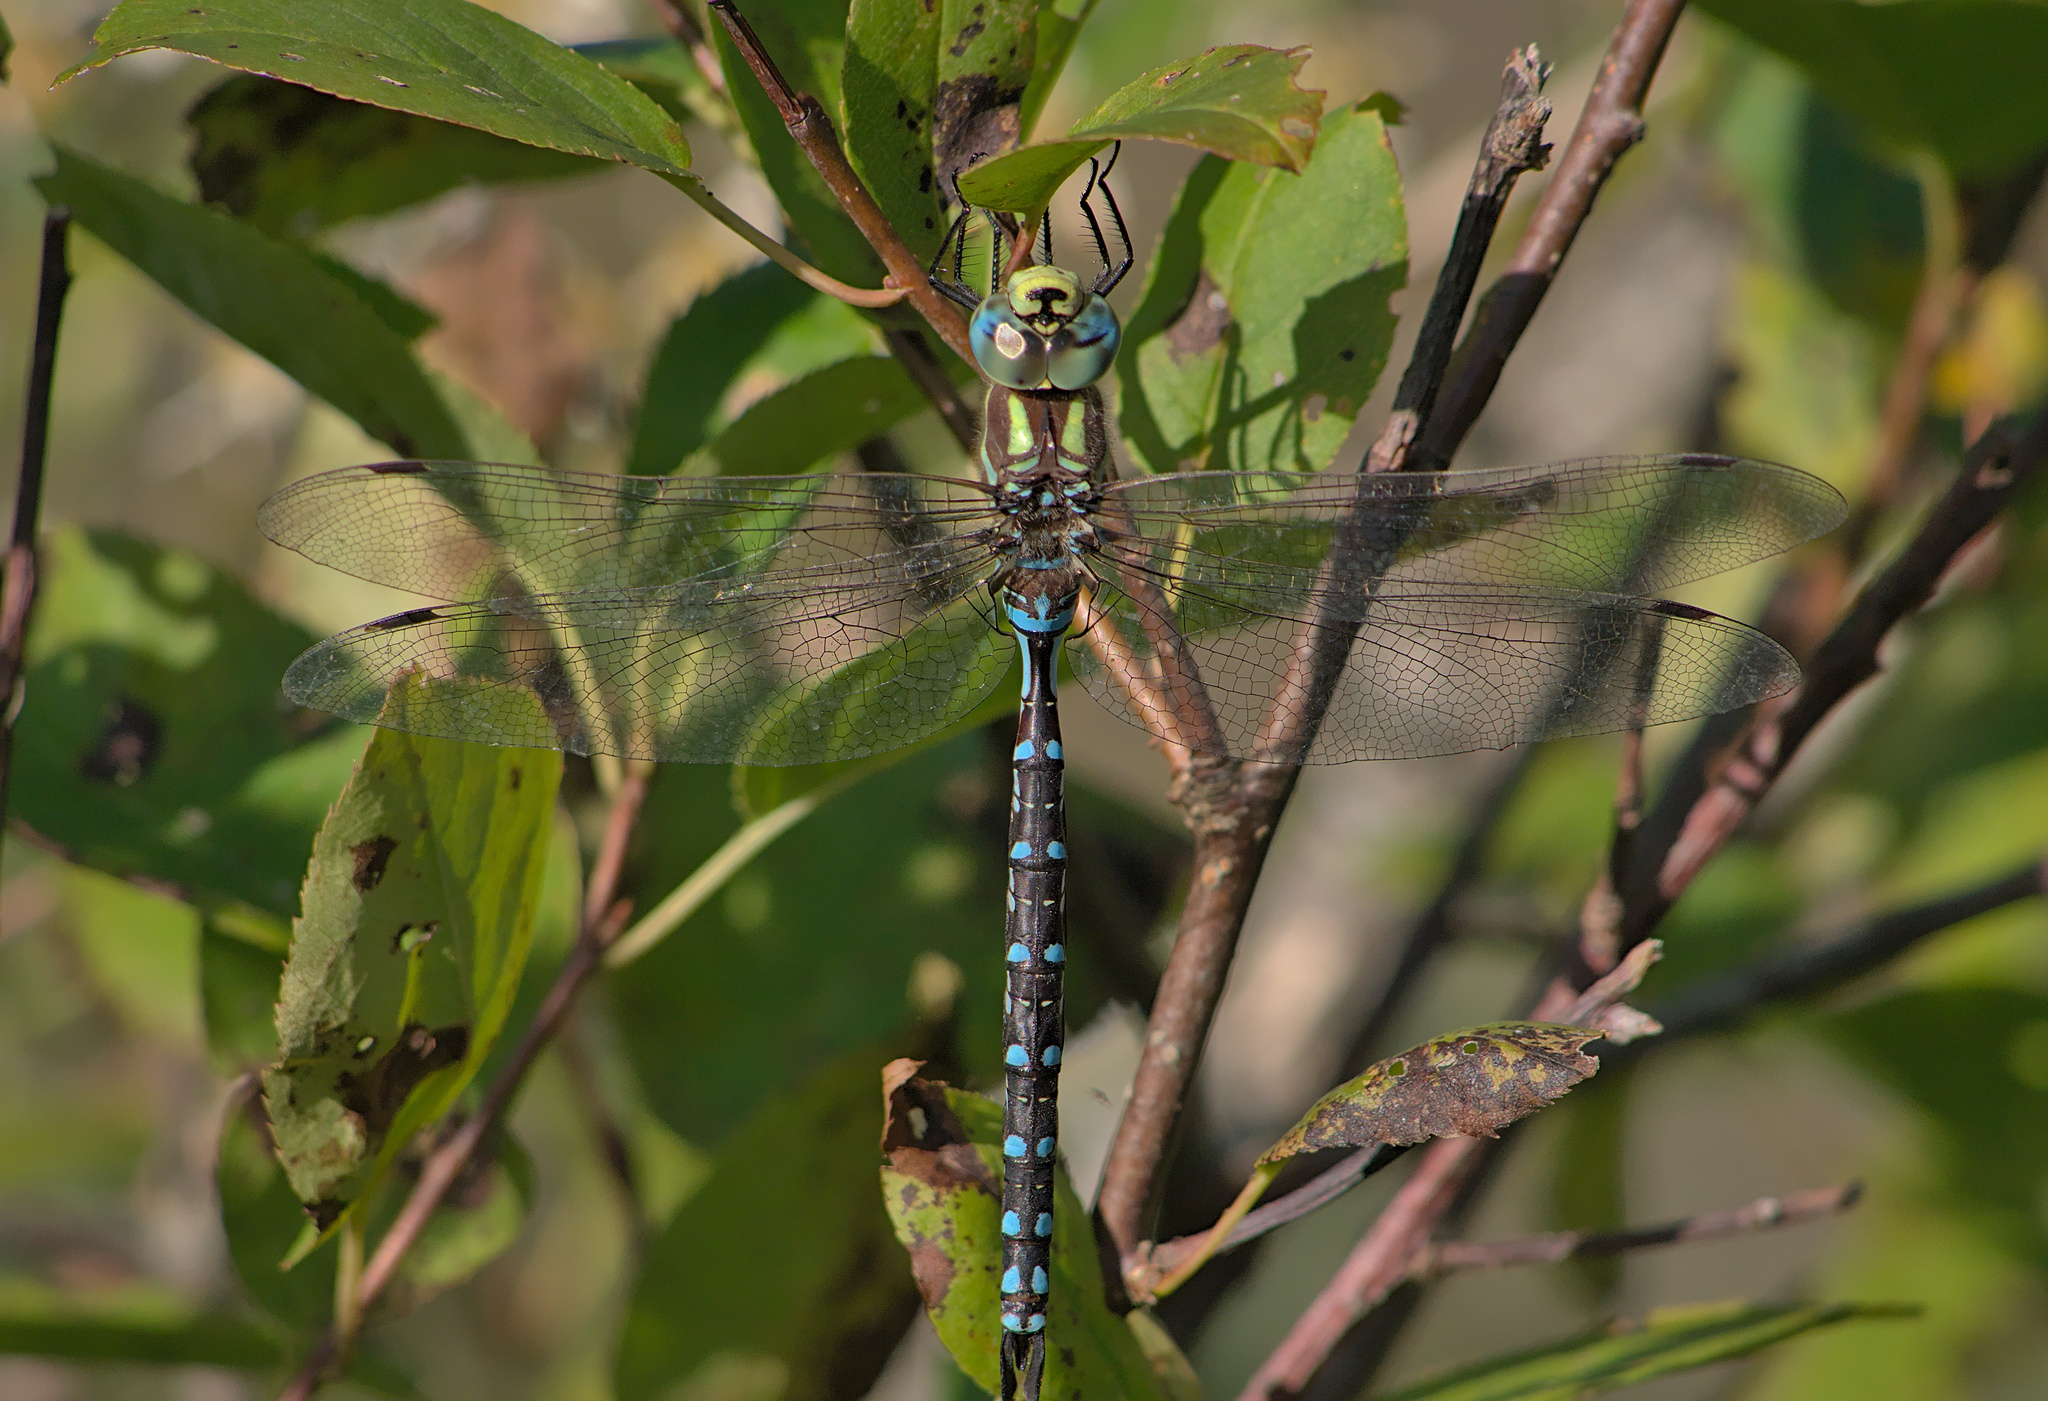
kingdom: Animalia
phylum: Arthropoda
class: Insecta
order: Odonata
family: Aeshnidae
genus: Aeshna
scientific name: Aeshna constricta
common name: Lance-tipped darner
